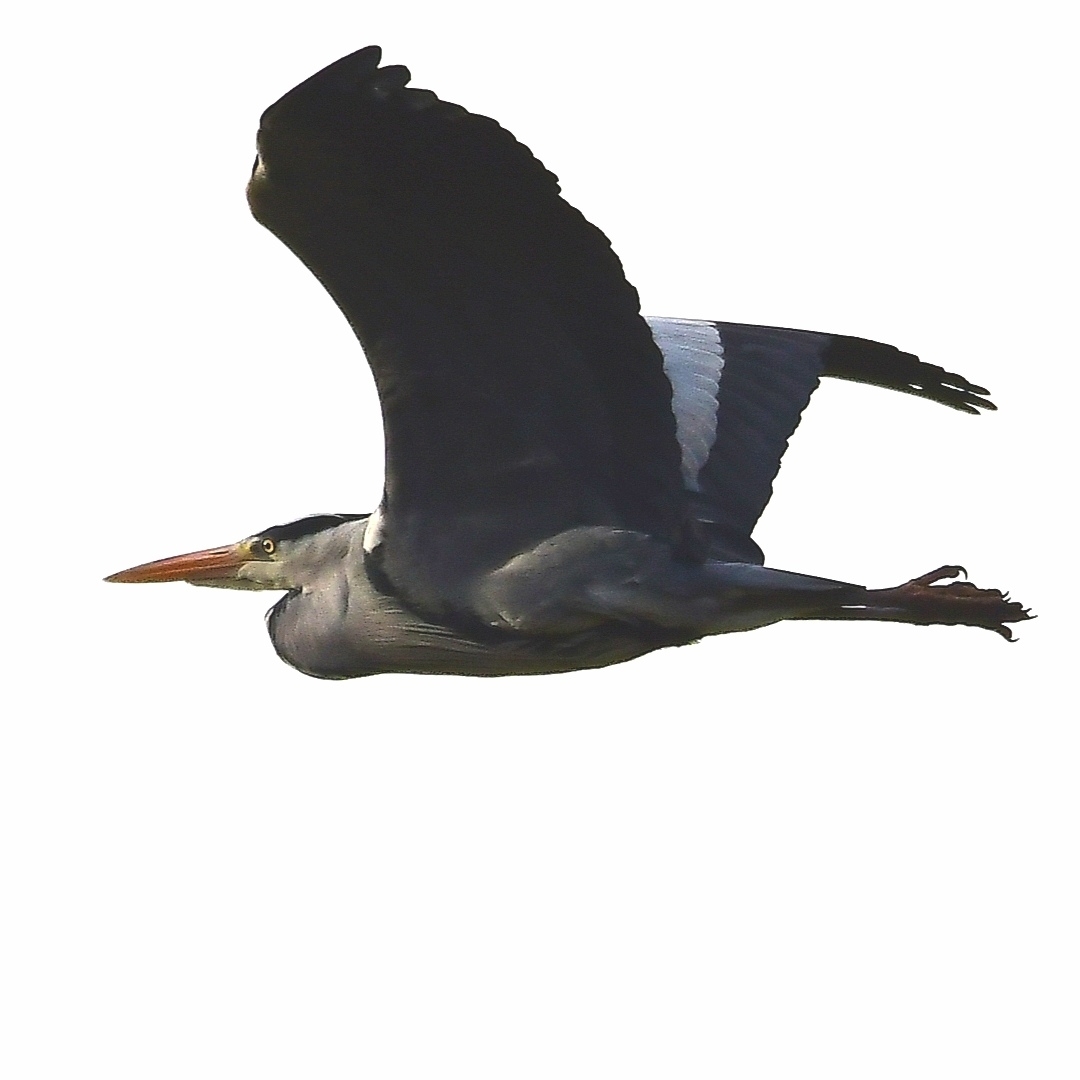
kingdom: Animalia
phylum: Chordata
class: Aves
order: Pelecaniformes
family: Ardeidae
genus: Ardea
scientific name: Ardea cinerea
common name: Grey heron
